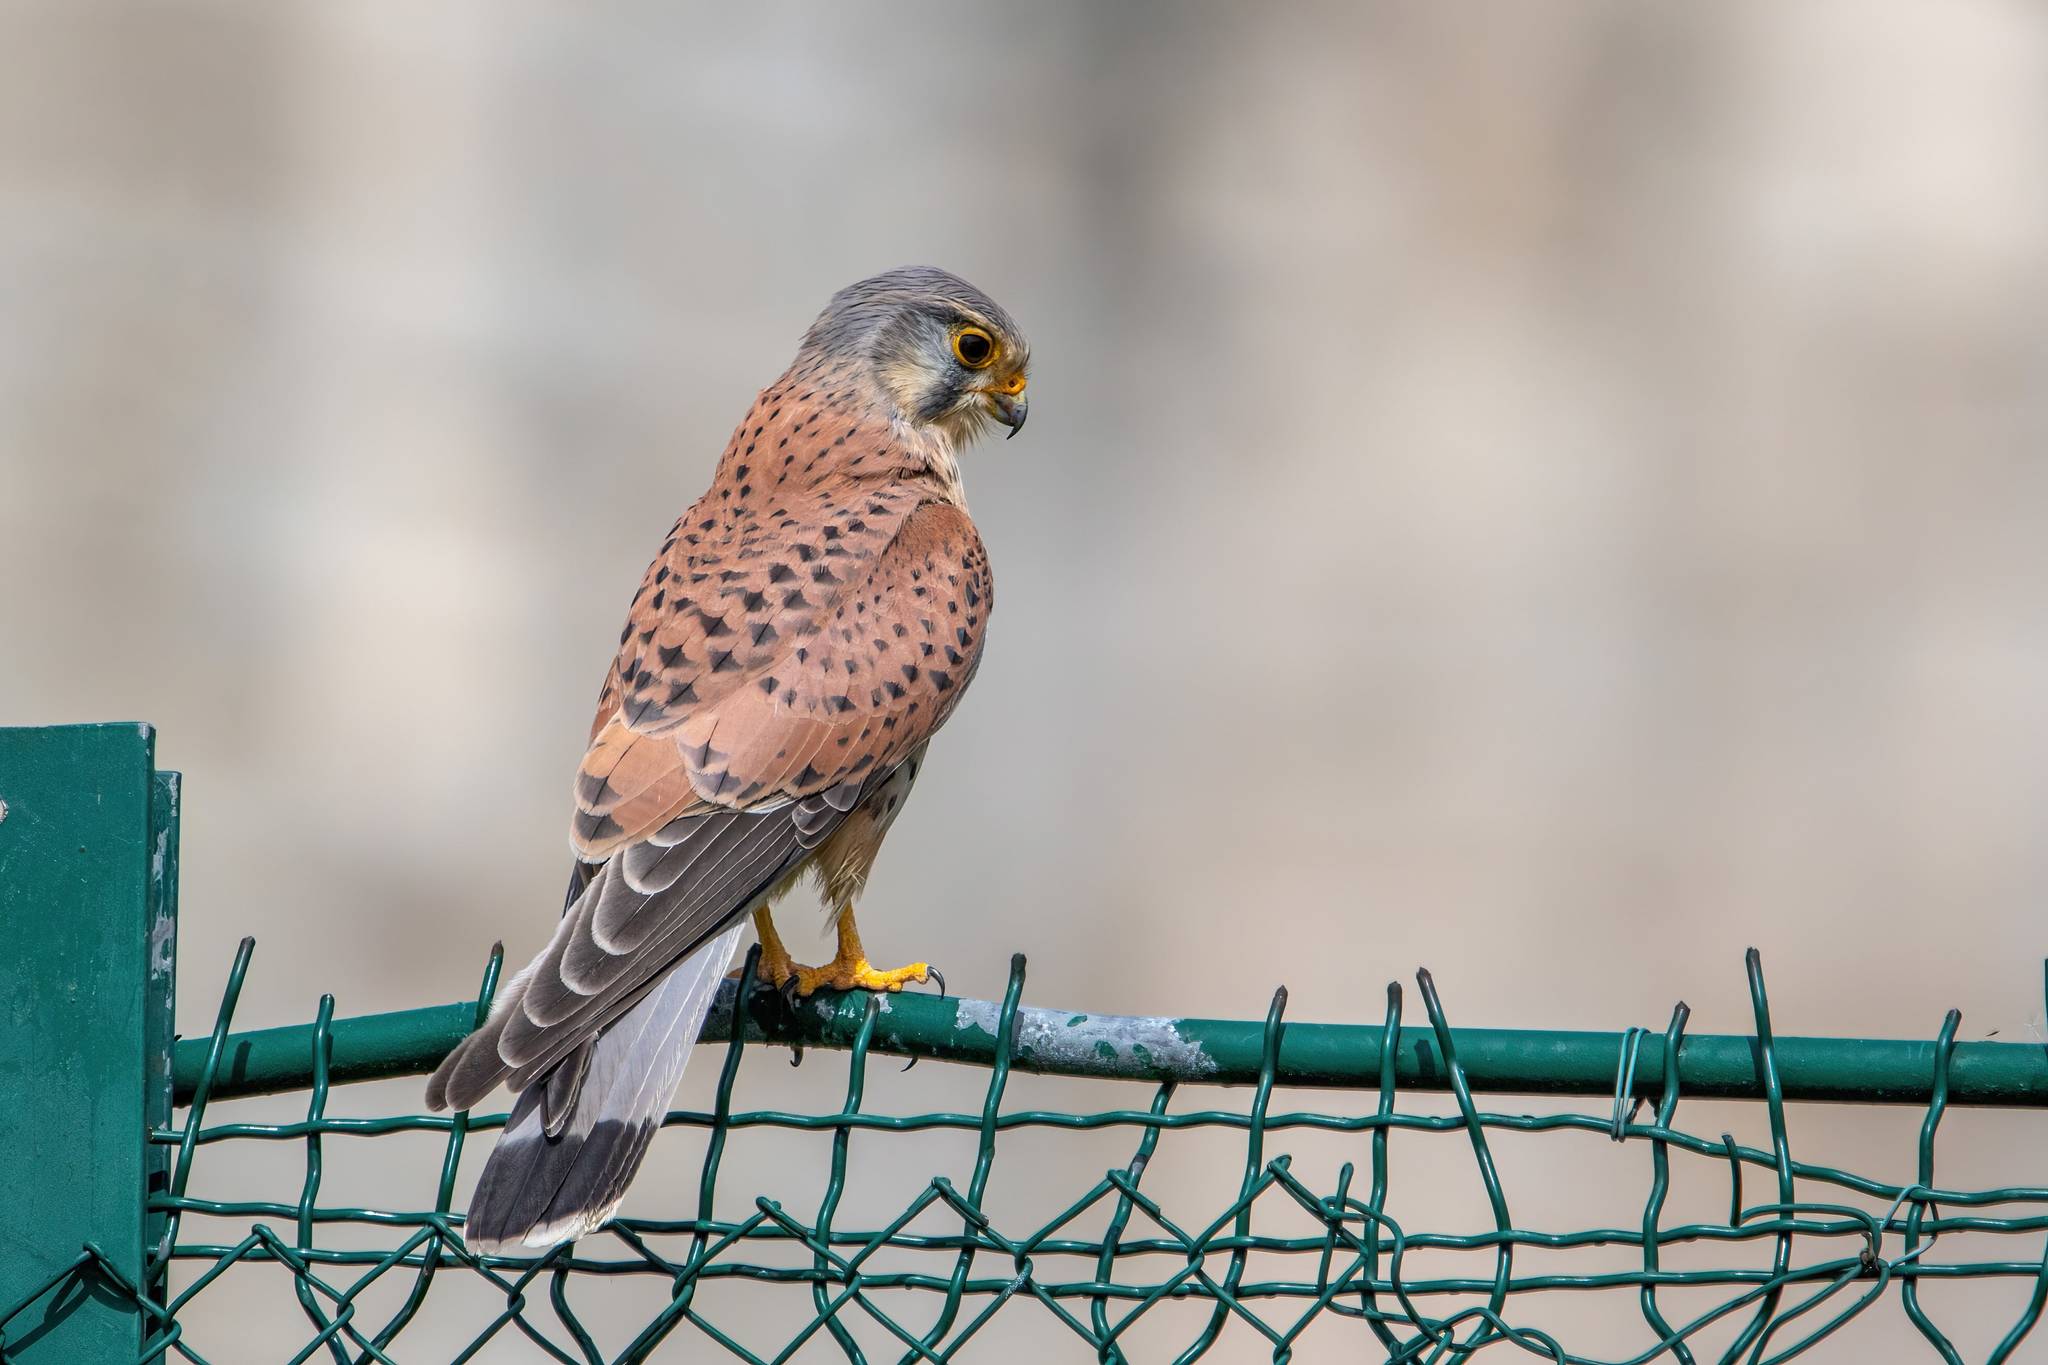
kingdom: Animalia
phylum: Chordata
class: Aves
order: Falconiformes
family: Falconidae
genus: Falco
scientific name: Falco tinnunculus
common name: Common kestrel
